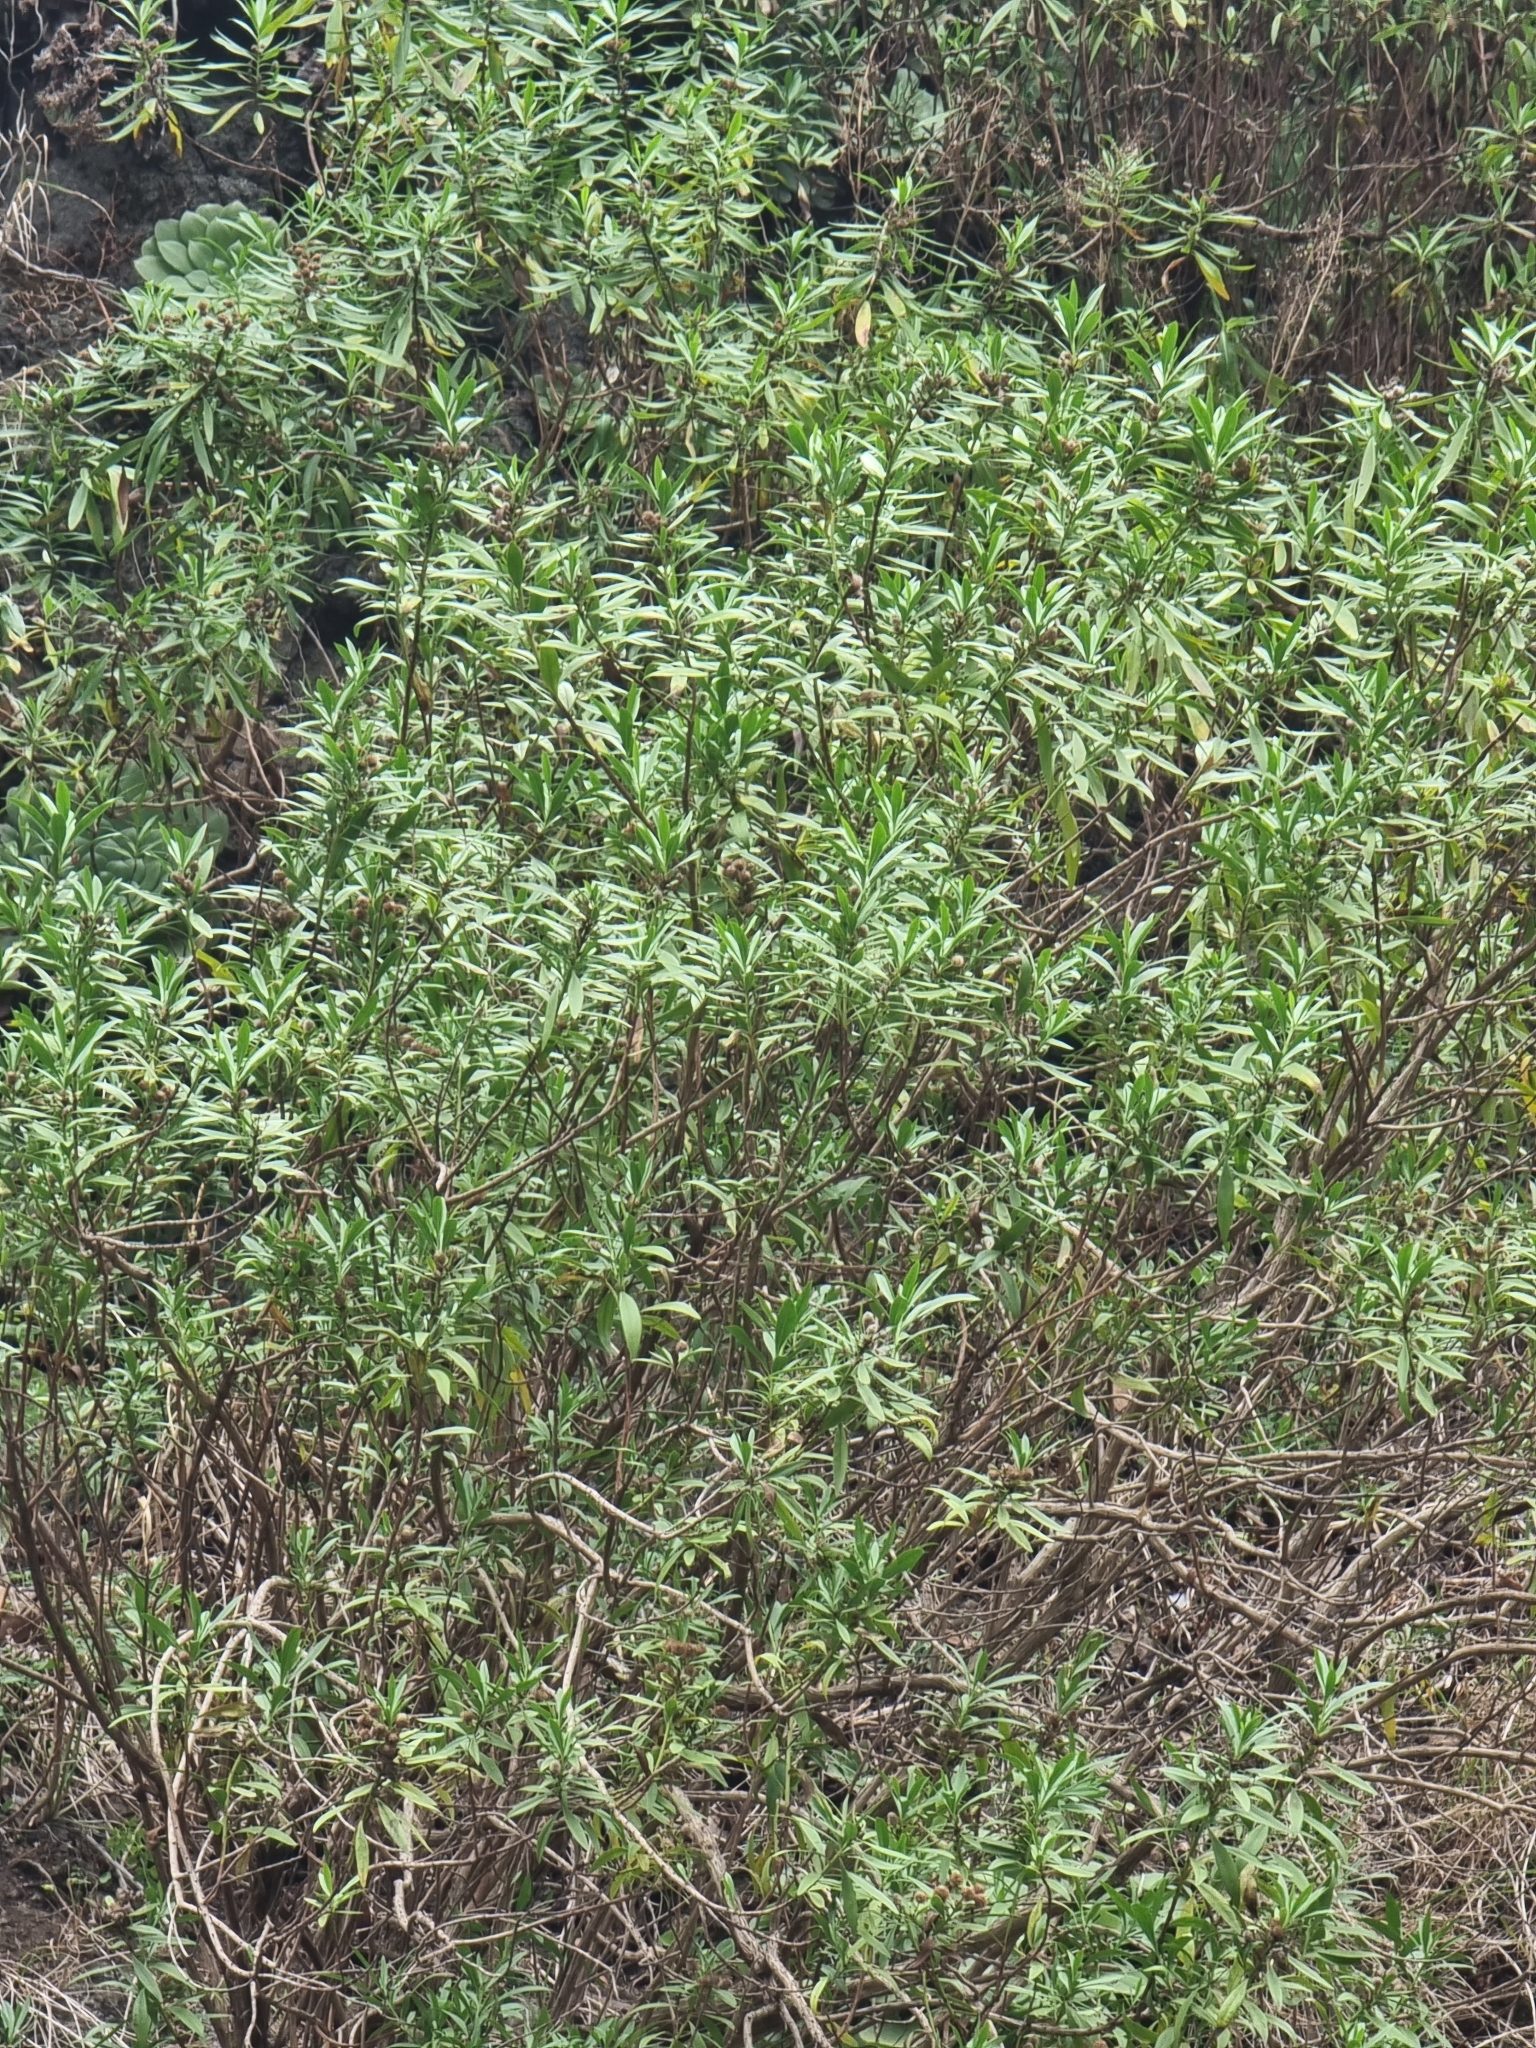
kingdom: Plantae
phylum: Tracheophyta
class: Magnoliopsida
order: Lamiales
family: Plantaginaceae
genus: Globularia
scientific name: Globularia salicina
